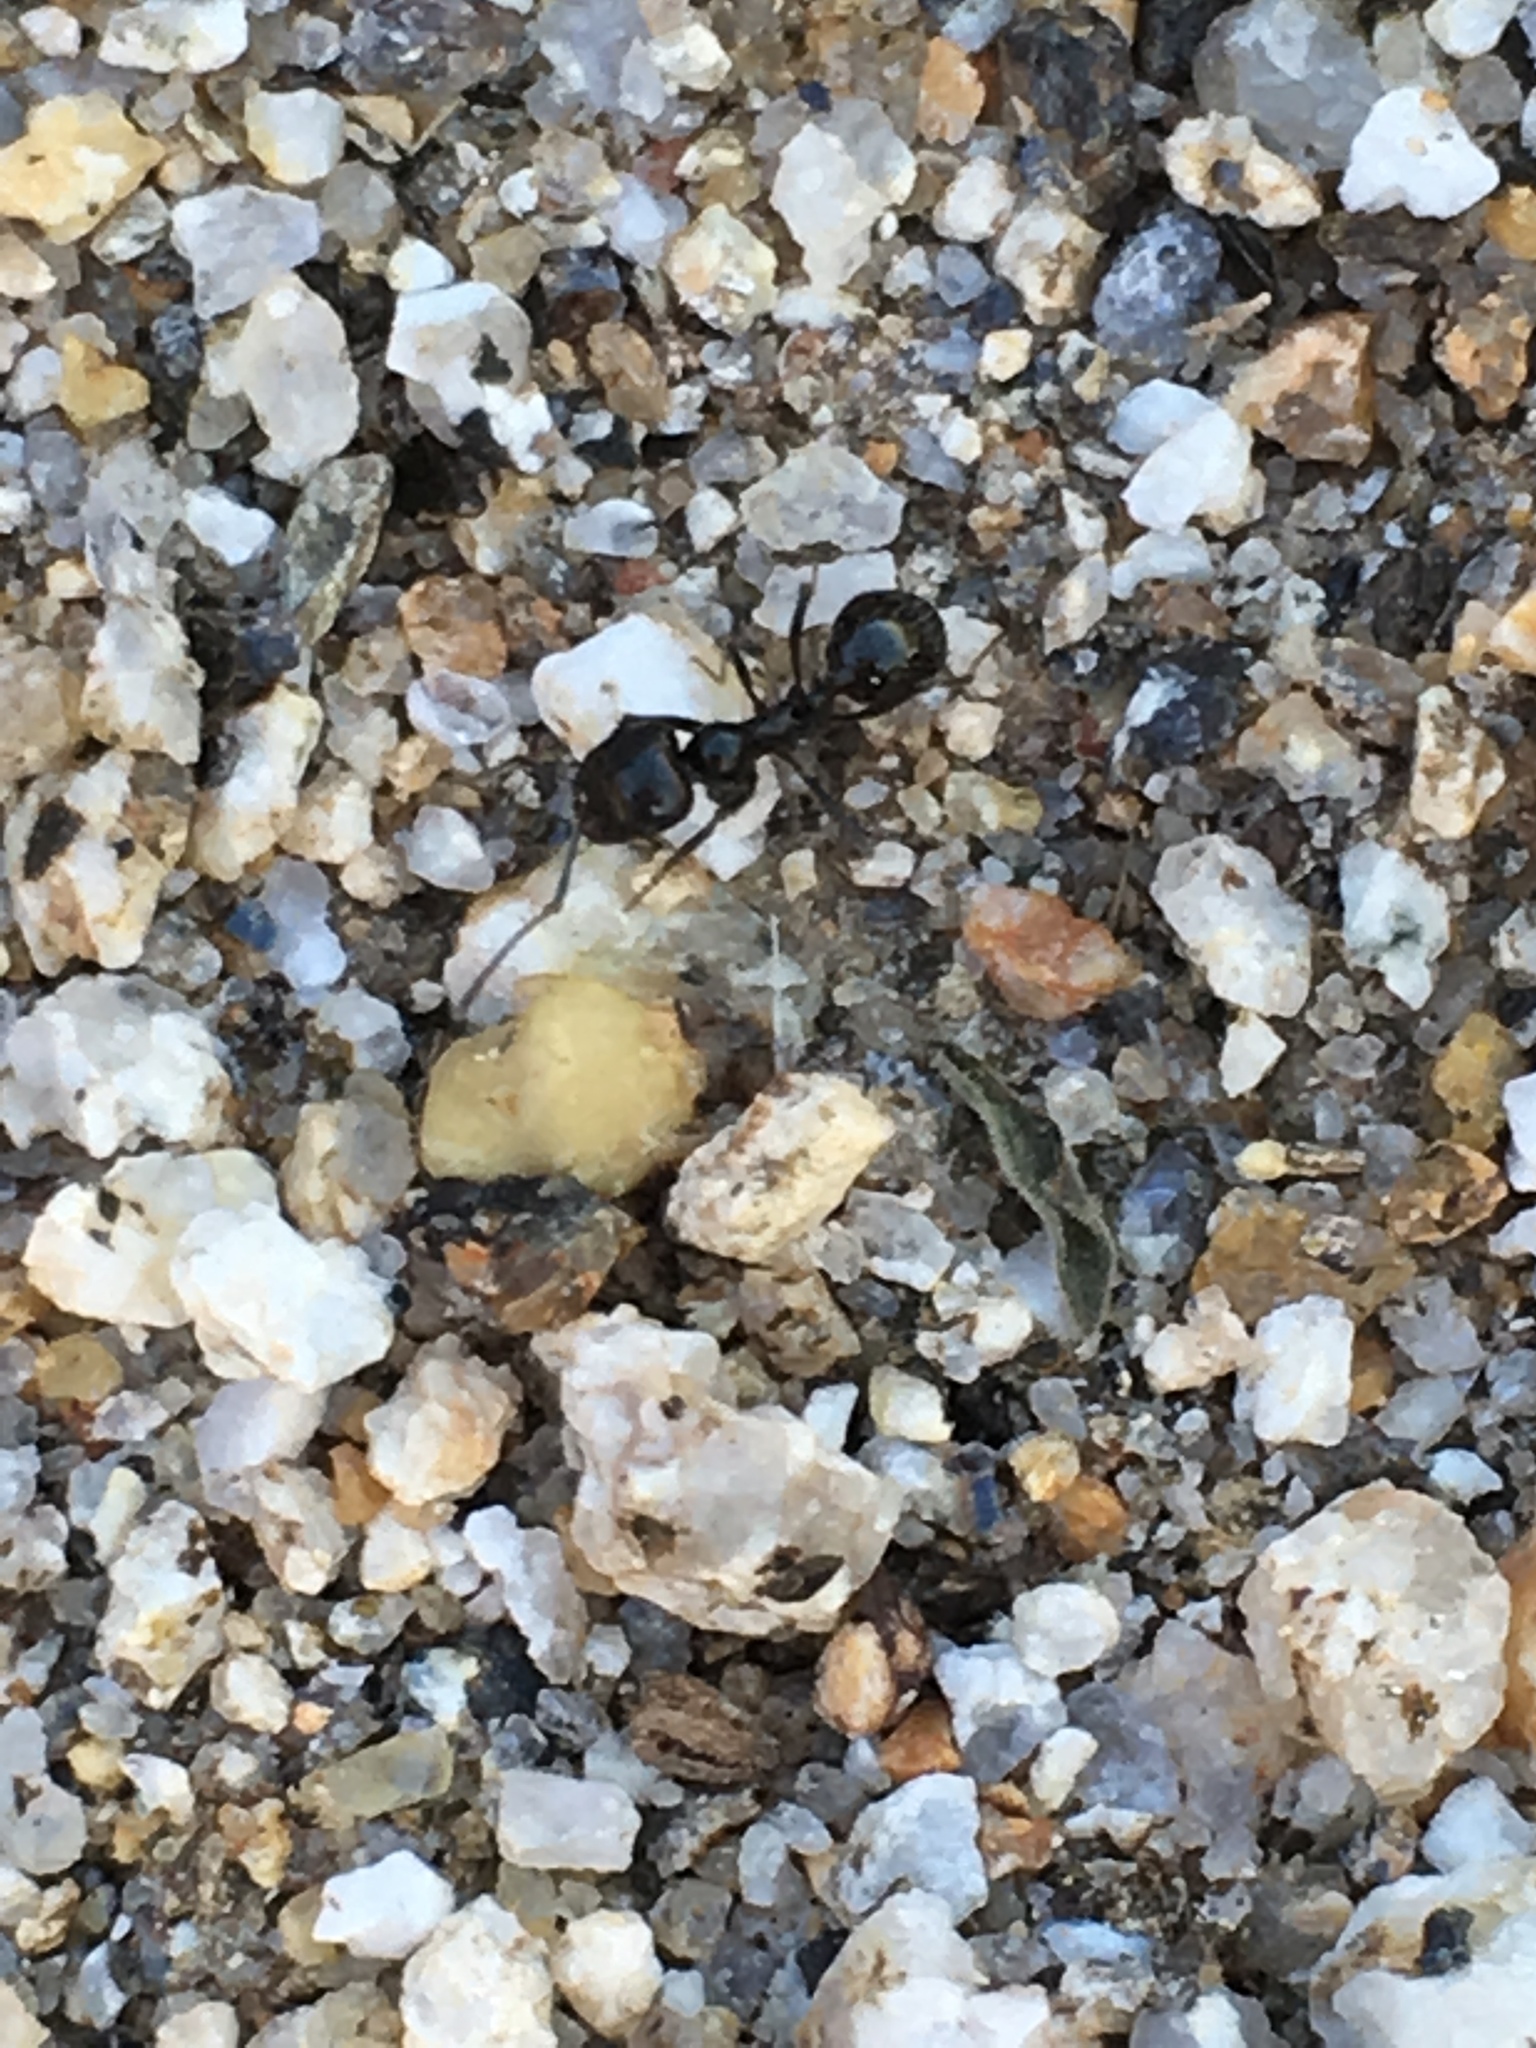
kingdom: Animalia
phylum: Arthropoda
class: Insecta
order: Hymenoptera
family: Formicidae
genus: Messor
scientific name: Messor pergandei
